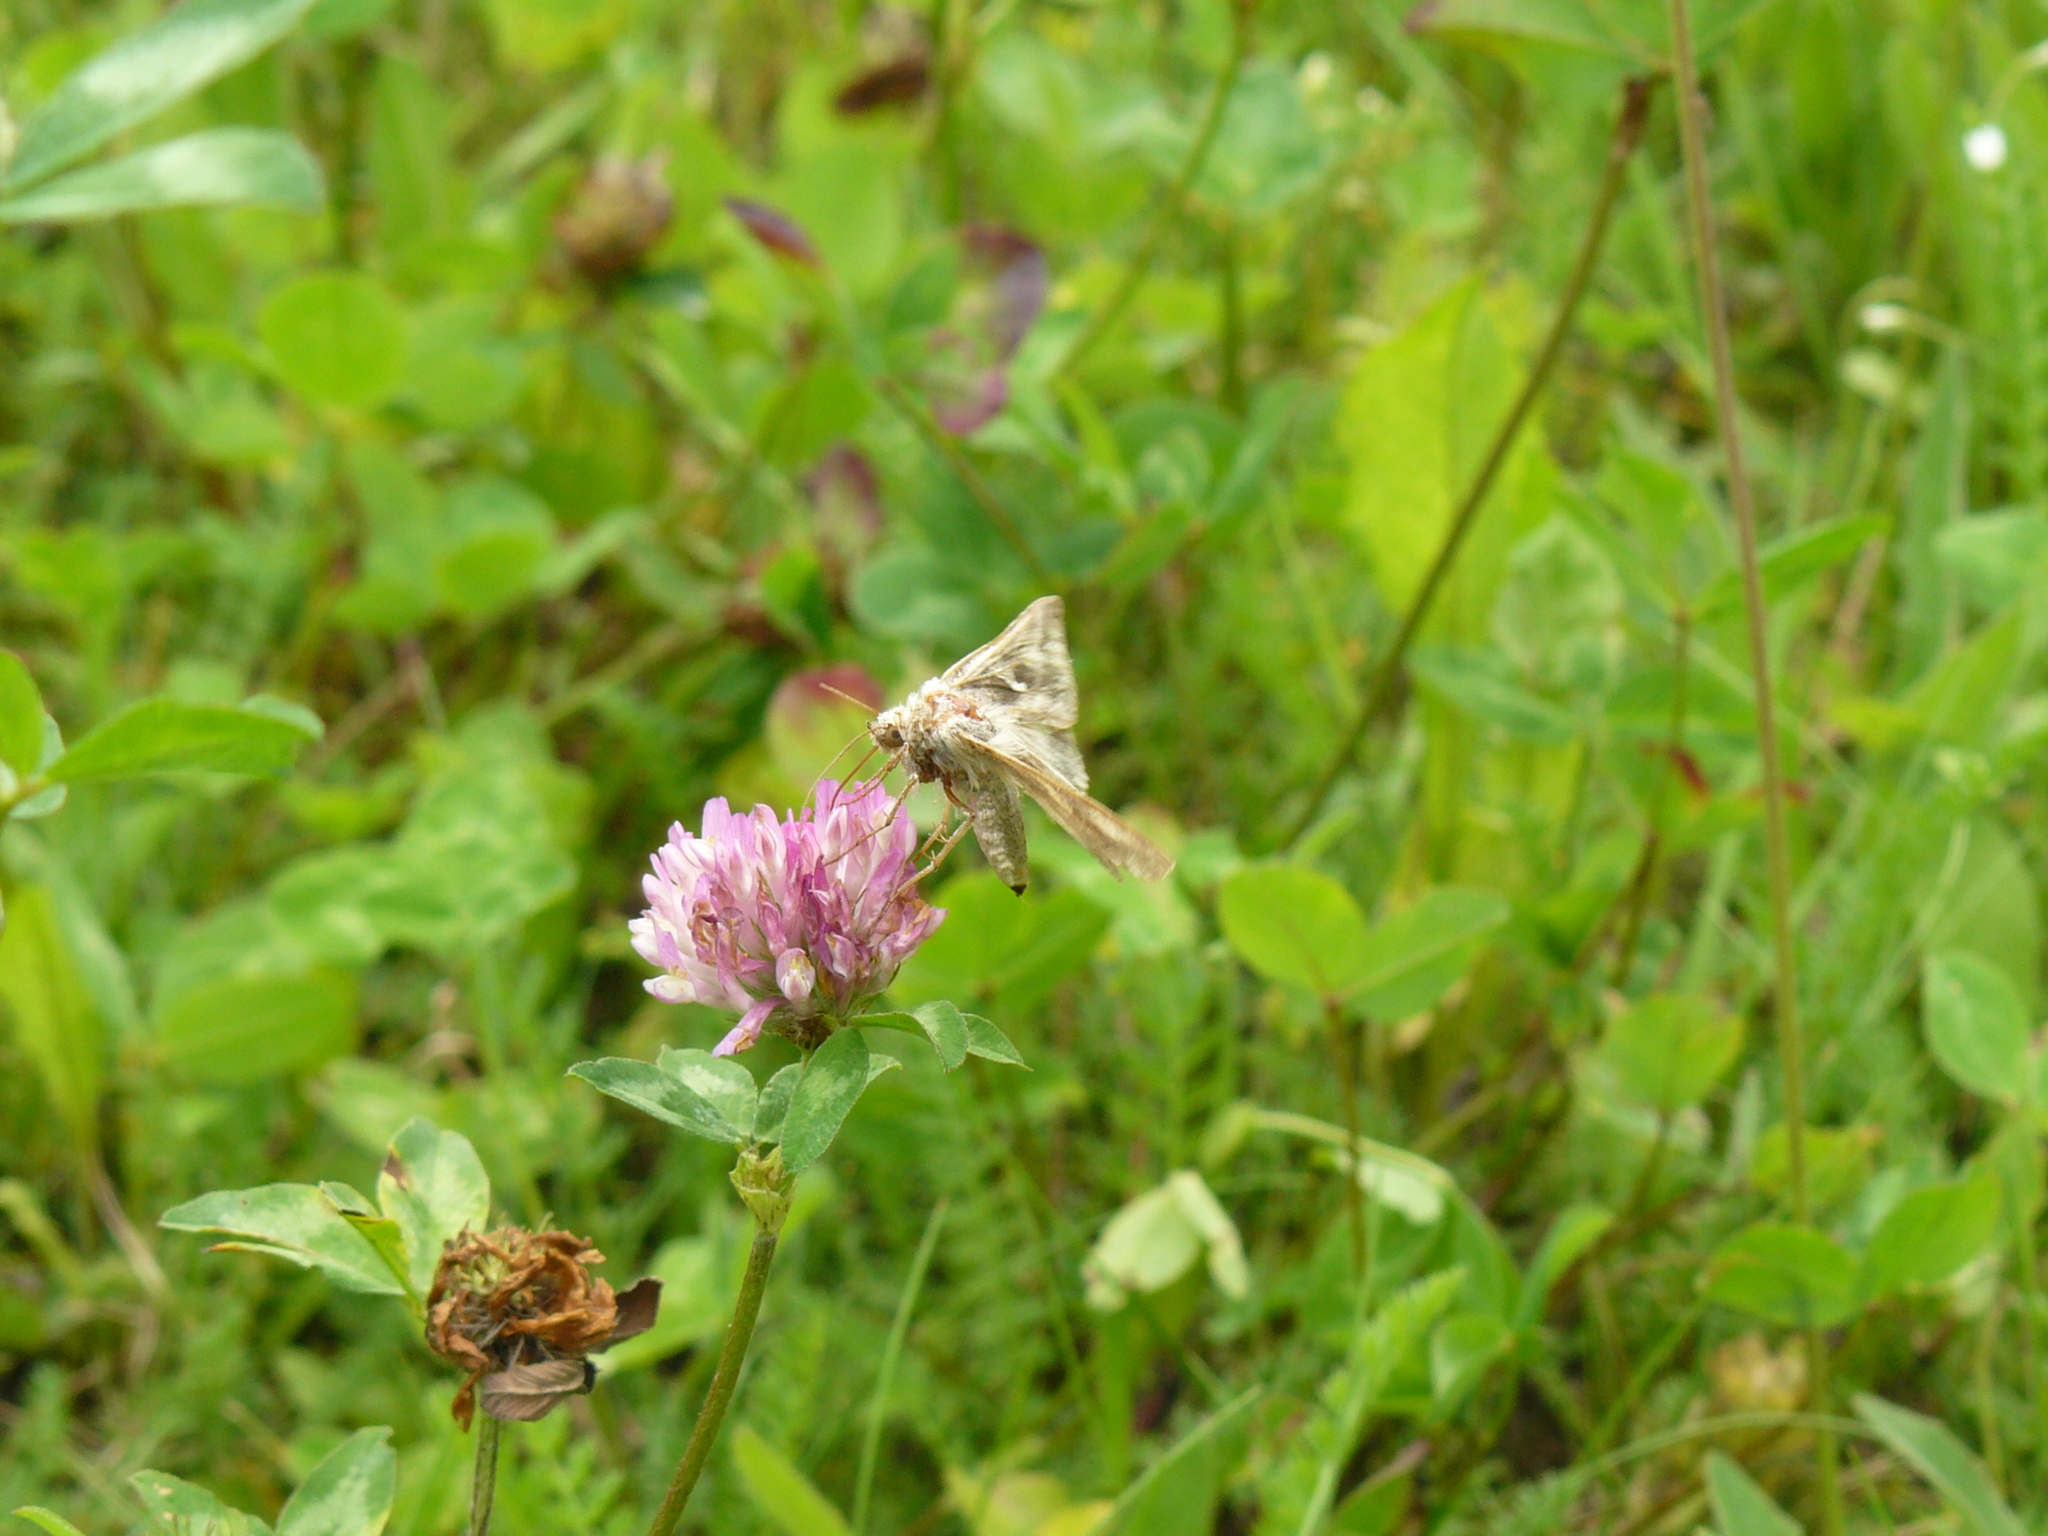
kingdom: Animalia
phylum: Arthropoda
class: Insecta
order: Lepidoptera
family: Noctuidae
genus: Autographa
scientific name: Autographa gamma
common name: Silver y
